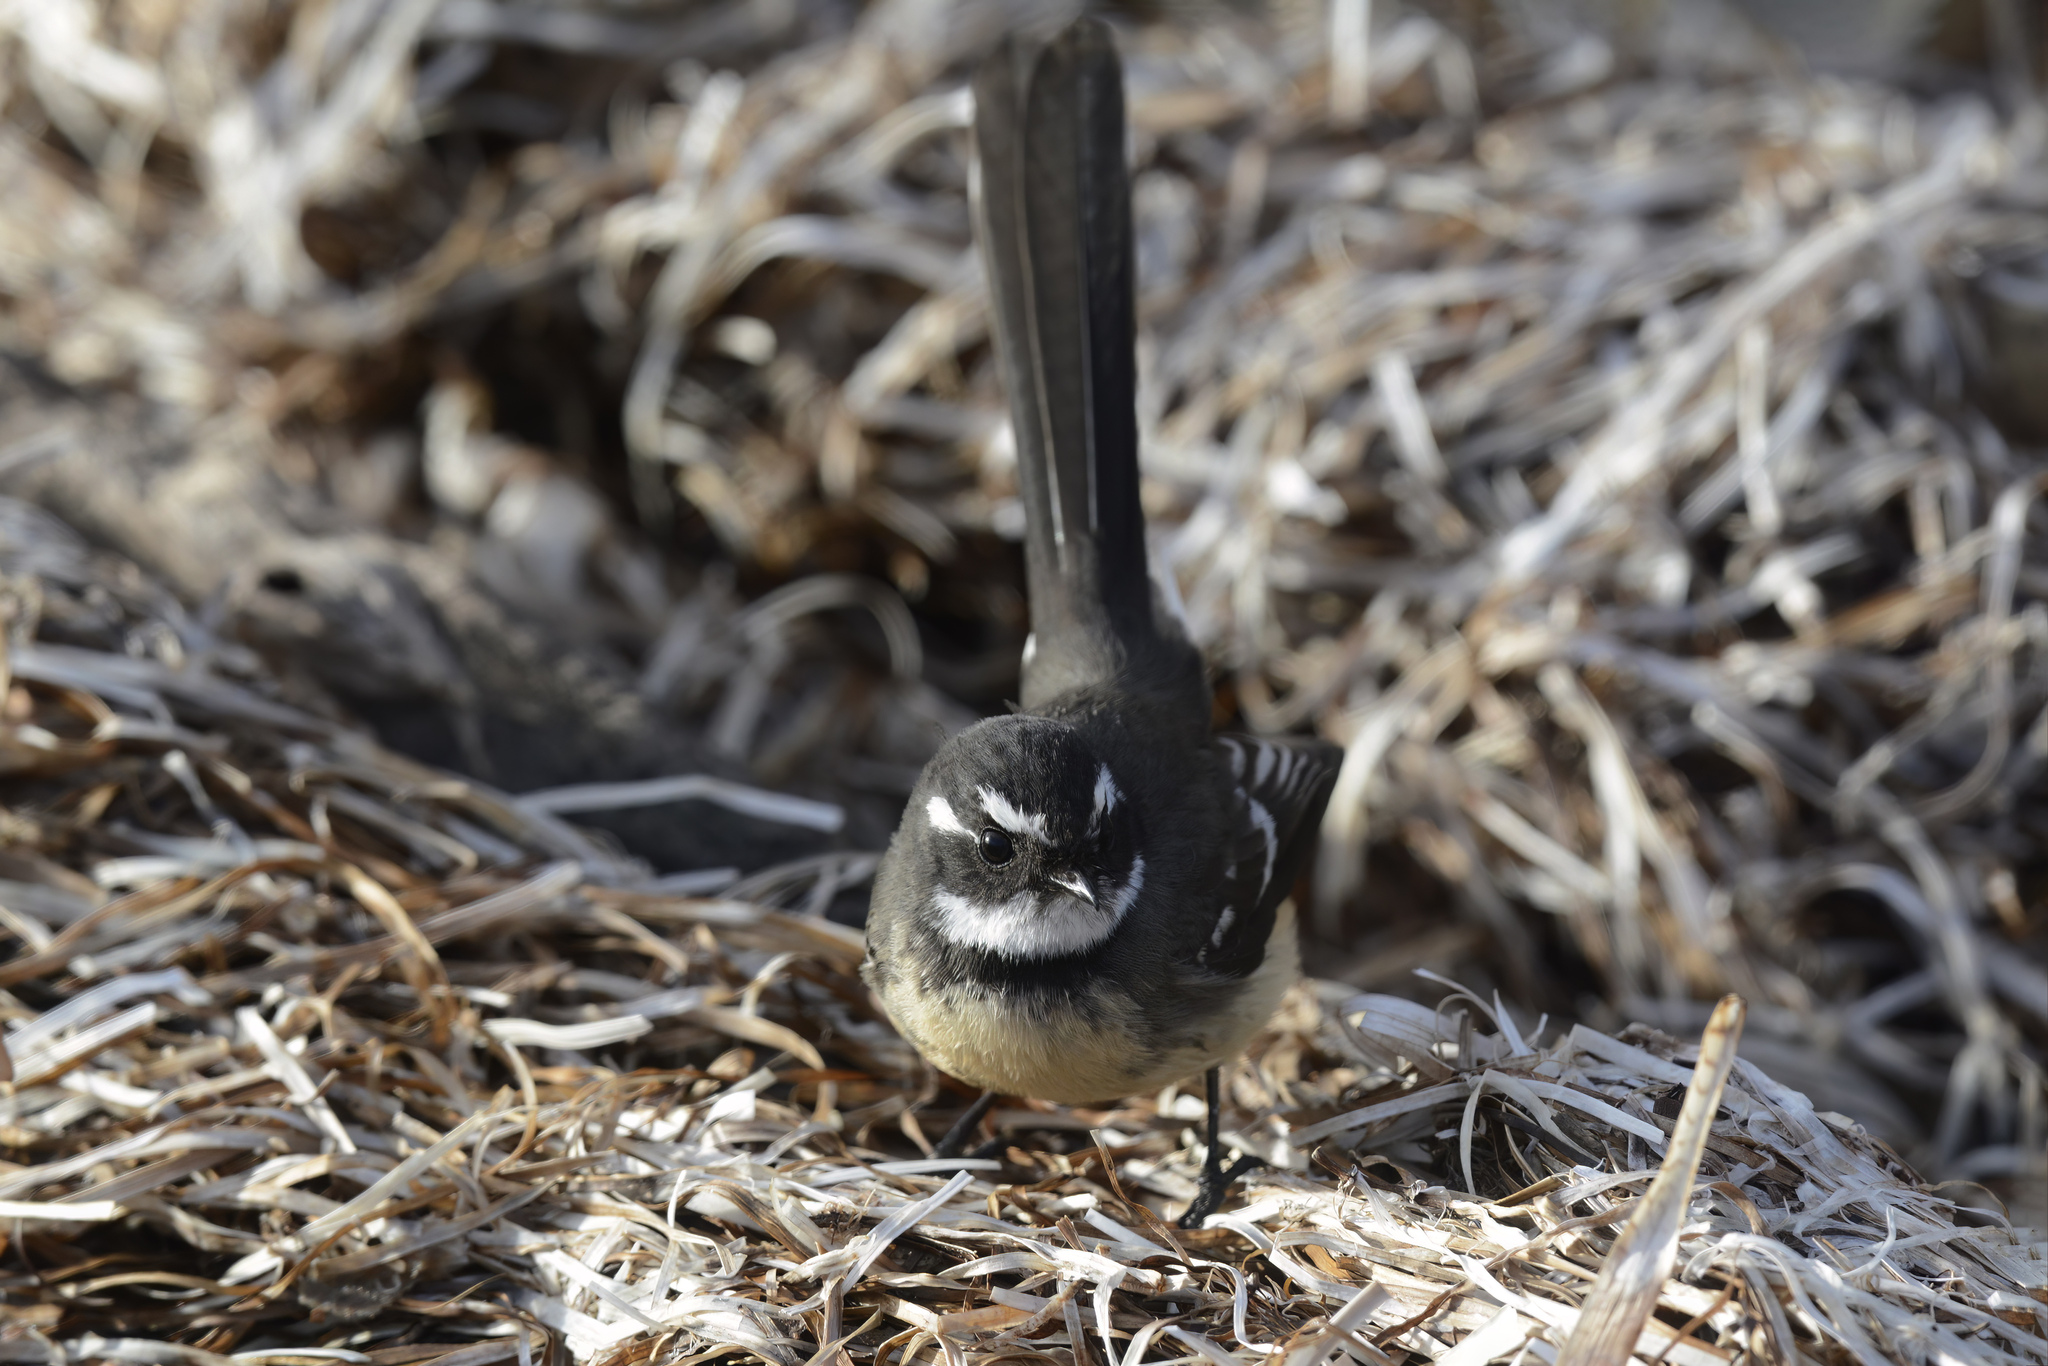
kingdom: Animalia
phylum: Chordata
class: Aves
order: Passeriformes
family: Rhipiduridae
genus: Rhipidura
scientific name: Rhipidura albiscapa
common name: Grey fantail
